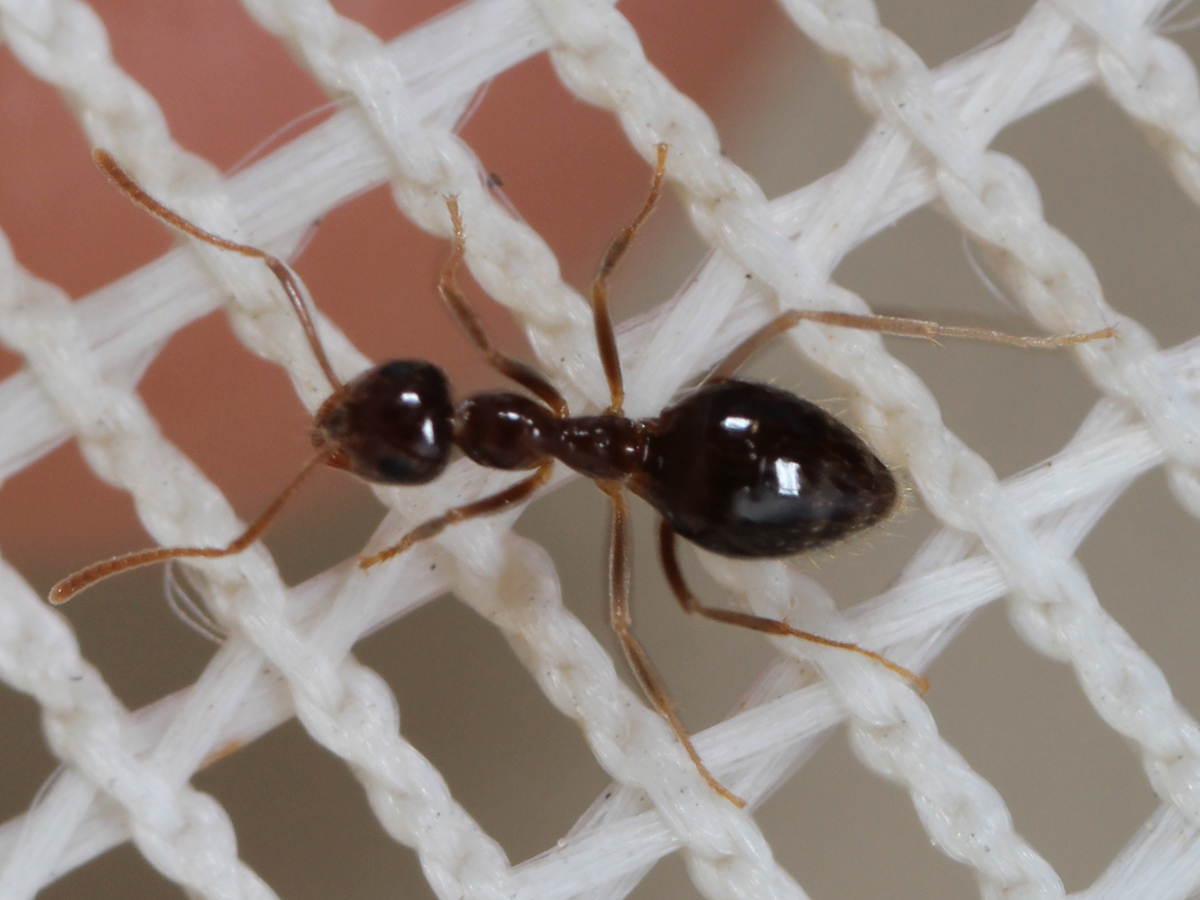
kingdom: Animalia
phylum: Arthropoda
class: Insecta
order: Hymenoptera
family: Formicidae
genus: Prenolepis
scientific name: Prenolepis imparis
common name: Small honey ant
